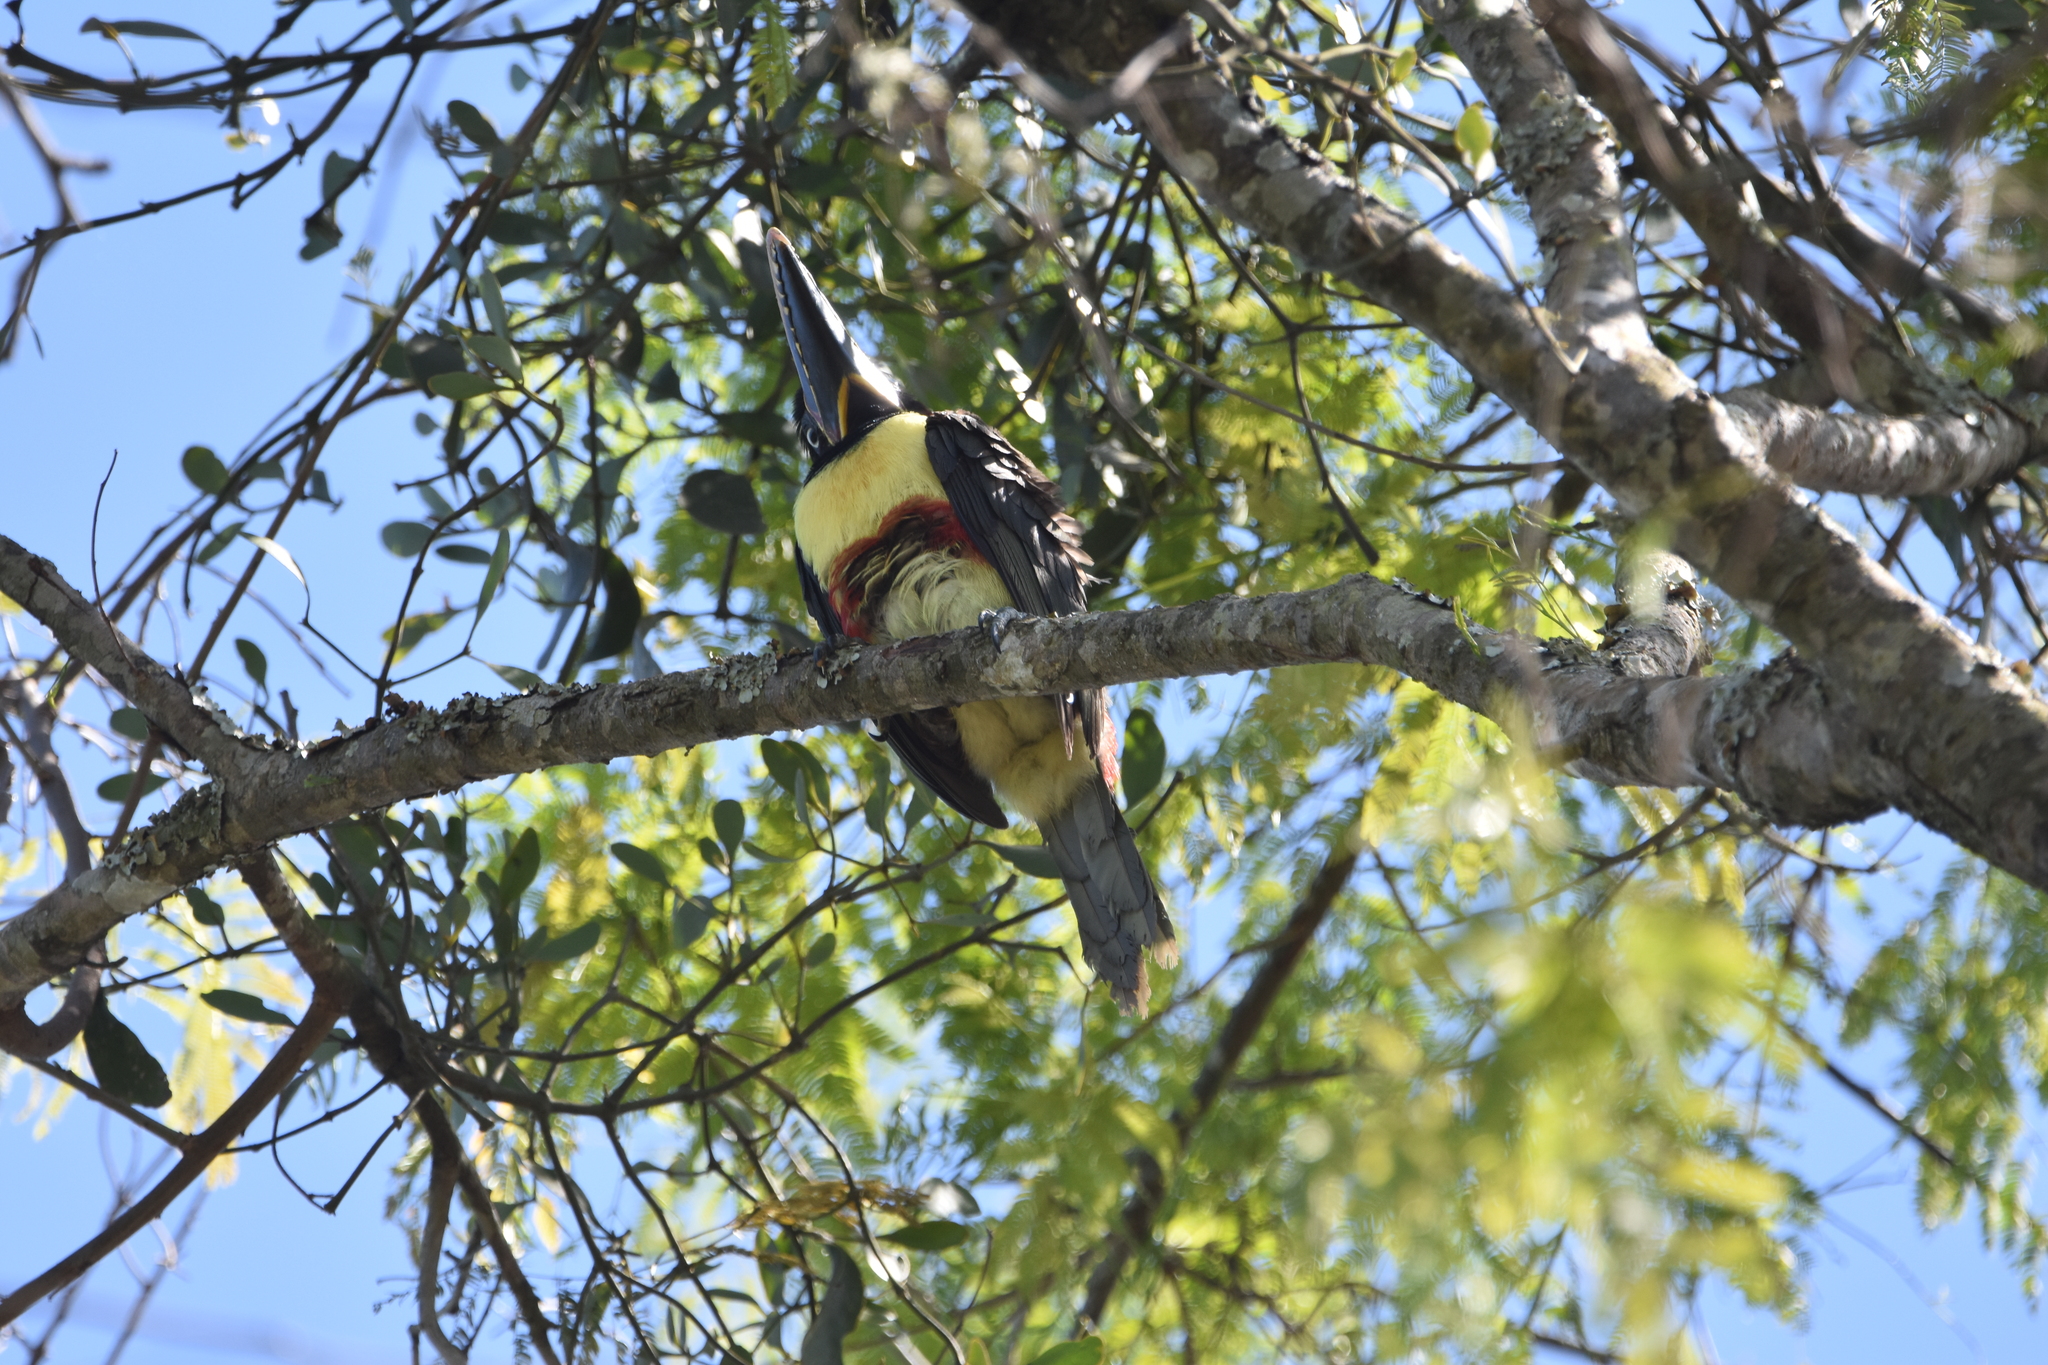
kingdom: Animalia
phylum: Chordata
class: Aves
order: Piciformes
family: Ramphastidae
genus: Pteroglossus
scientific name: Pteroglossus castanotis
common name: Chestnut-eared aracari
